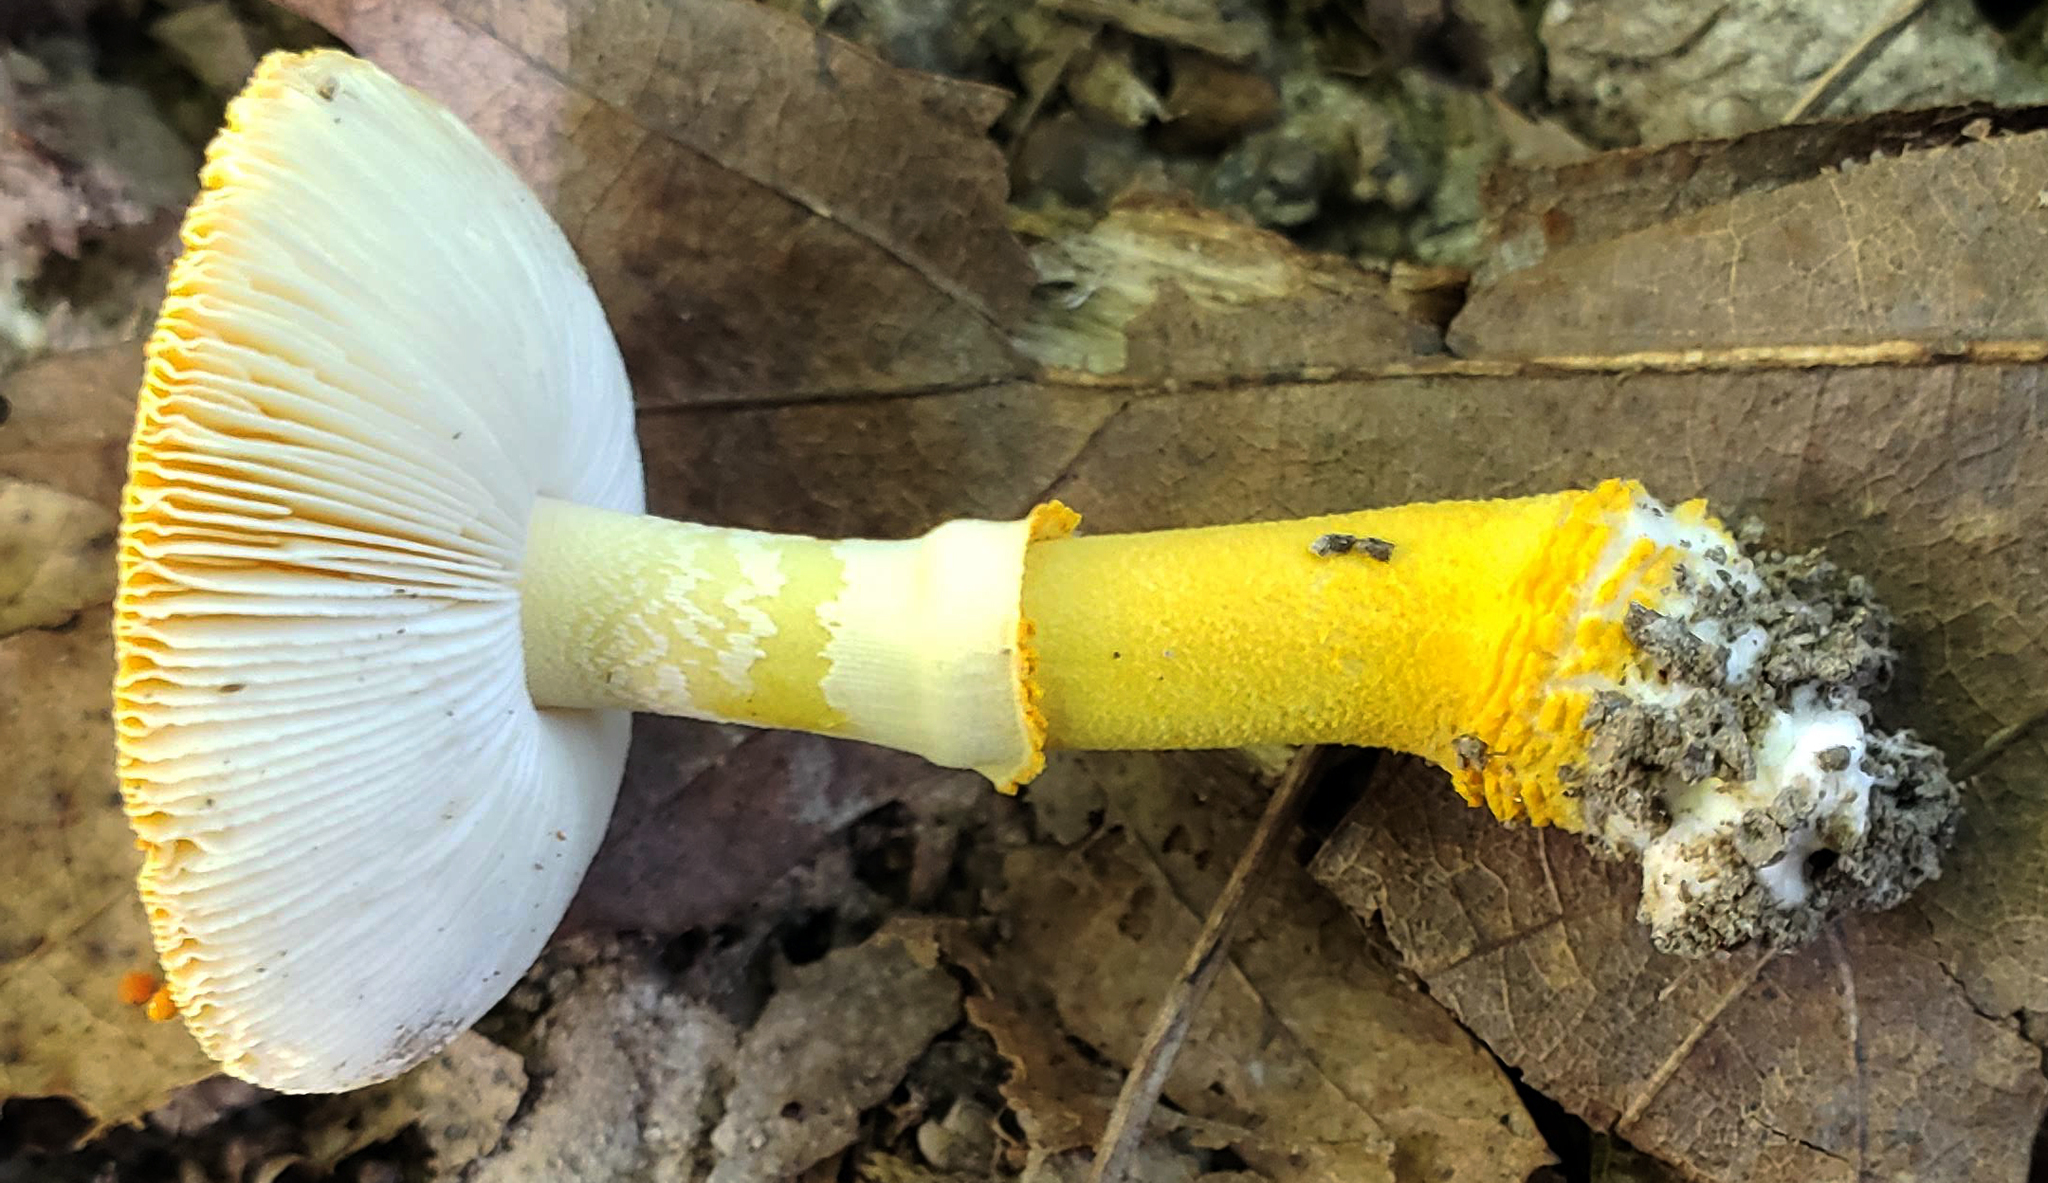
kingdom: Fungi
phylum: Basidiomycota
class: Agaricomycetes
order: Agaricales
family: Amanitaceae
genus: Amanita
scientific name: Amanita flavoconia
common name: Yellow patches
